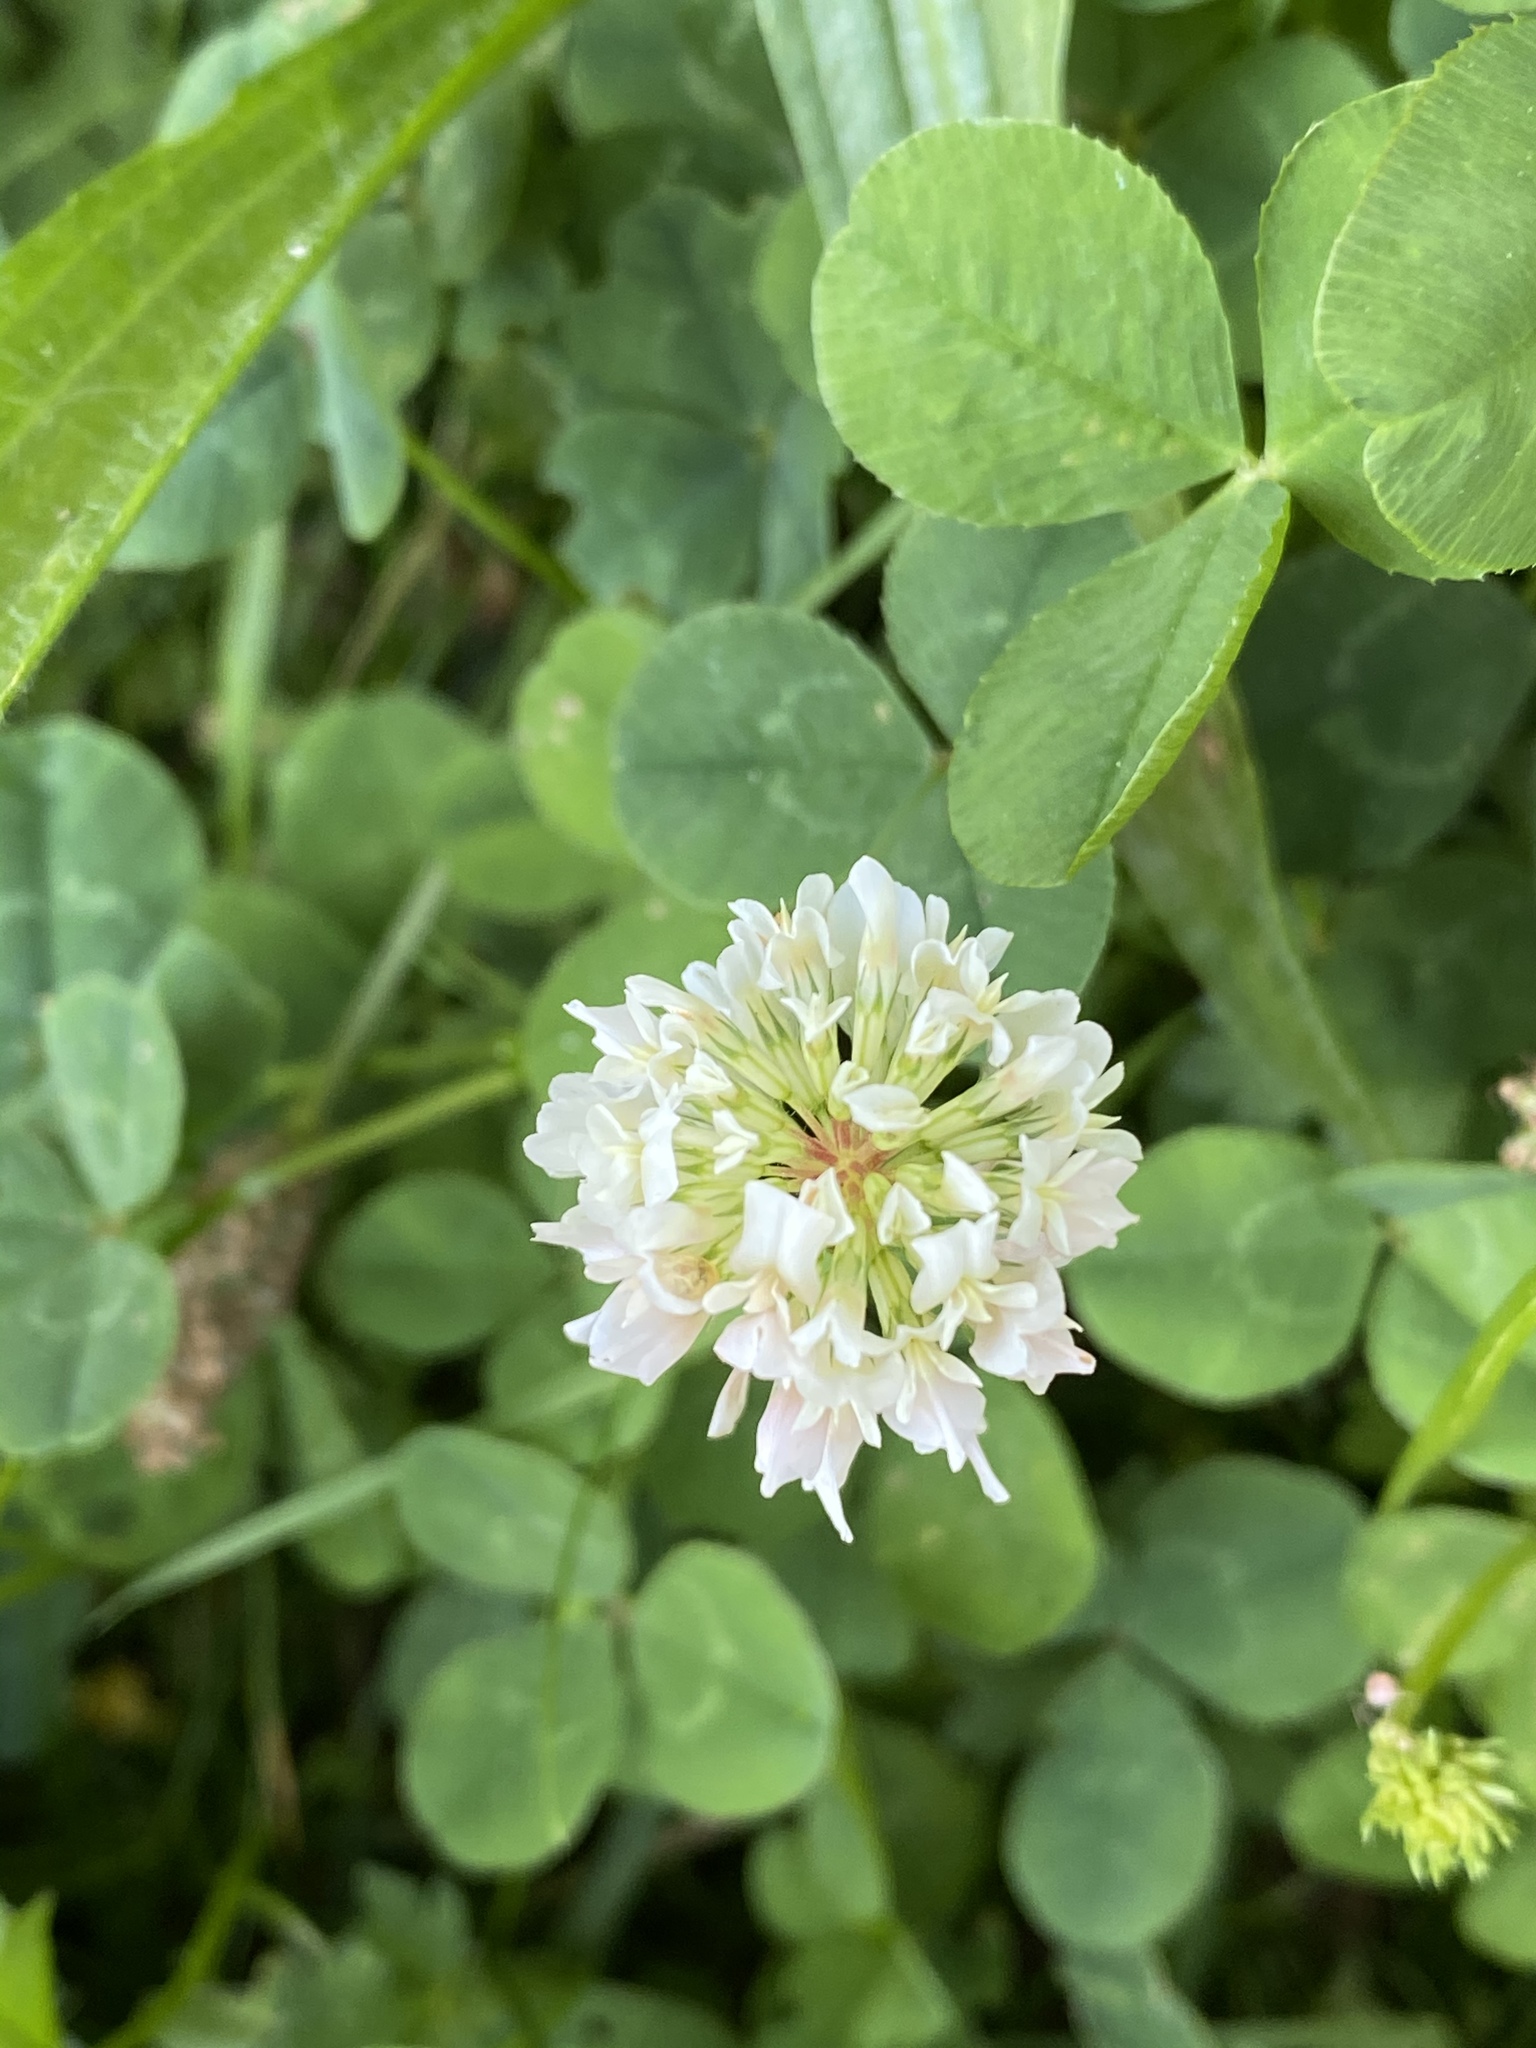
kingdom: Plantae
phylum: Tracheophyta
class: Magnoliopsida
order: Fabales
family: Fabaceae
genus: Trifolium
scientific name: Trifolium repens
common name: White clover
